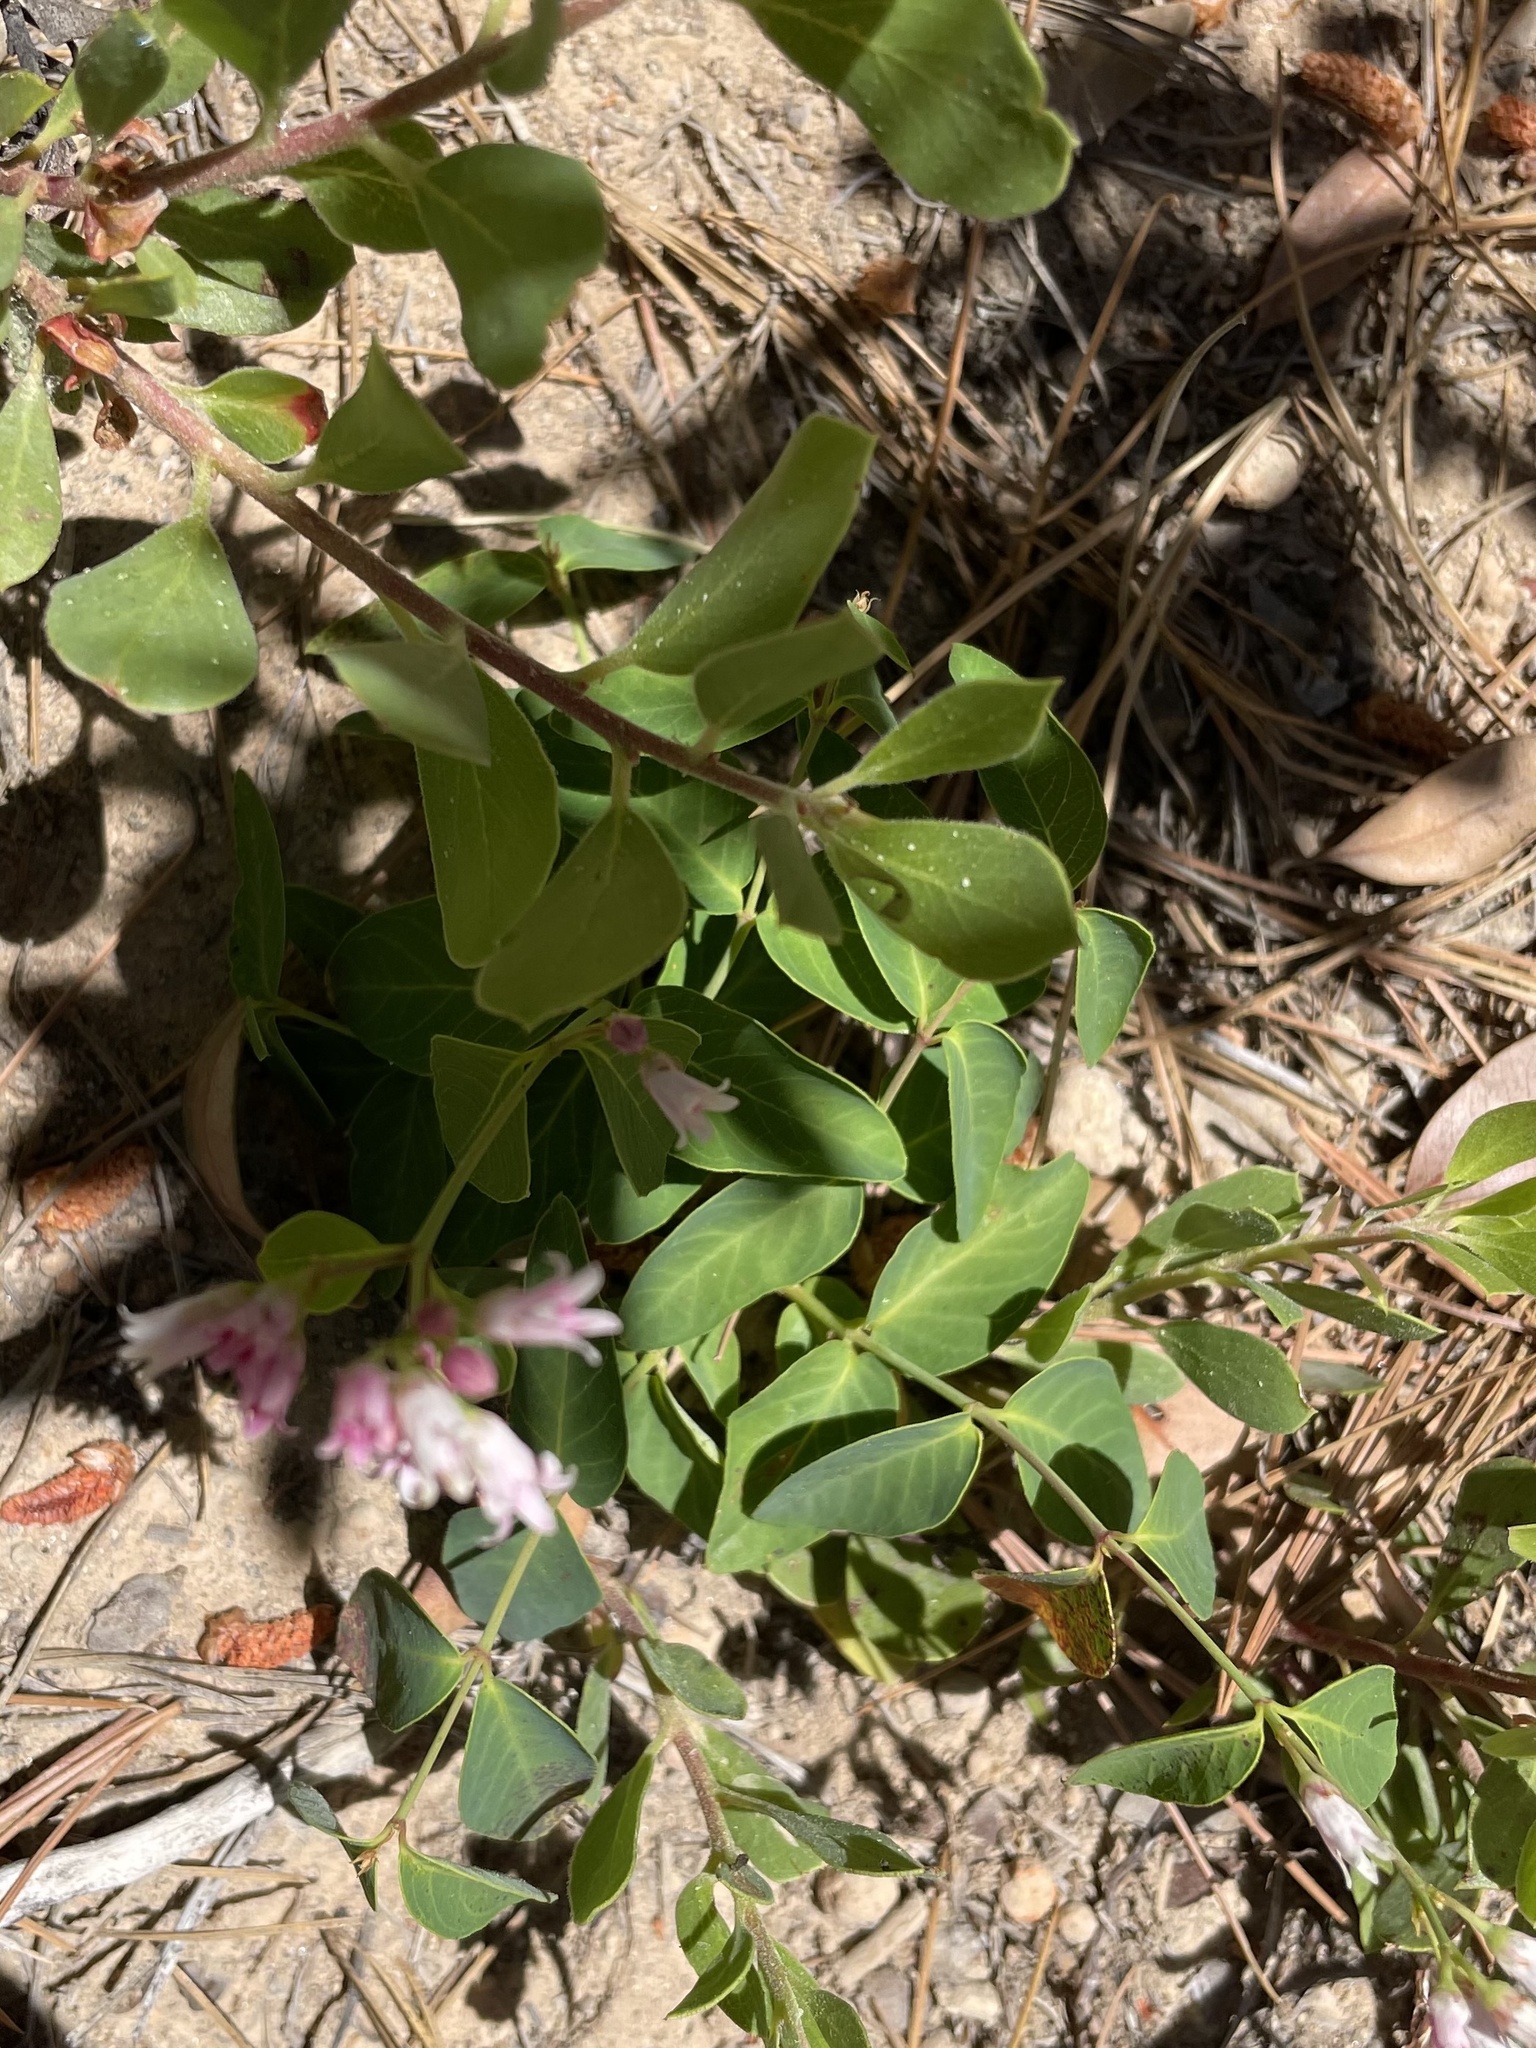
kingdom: Plantae
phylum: Tracheophyta
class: Magnoliopsida
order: Gentianales
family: Apocynaceae
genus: Apocynum
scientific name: Apocynum androsaemifolium
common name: Spreading dogbane
